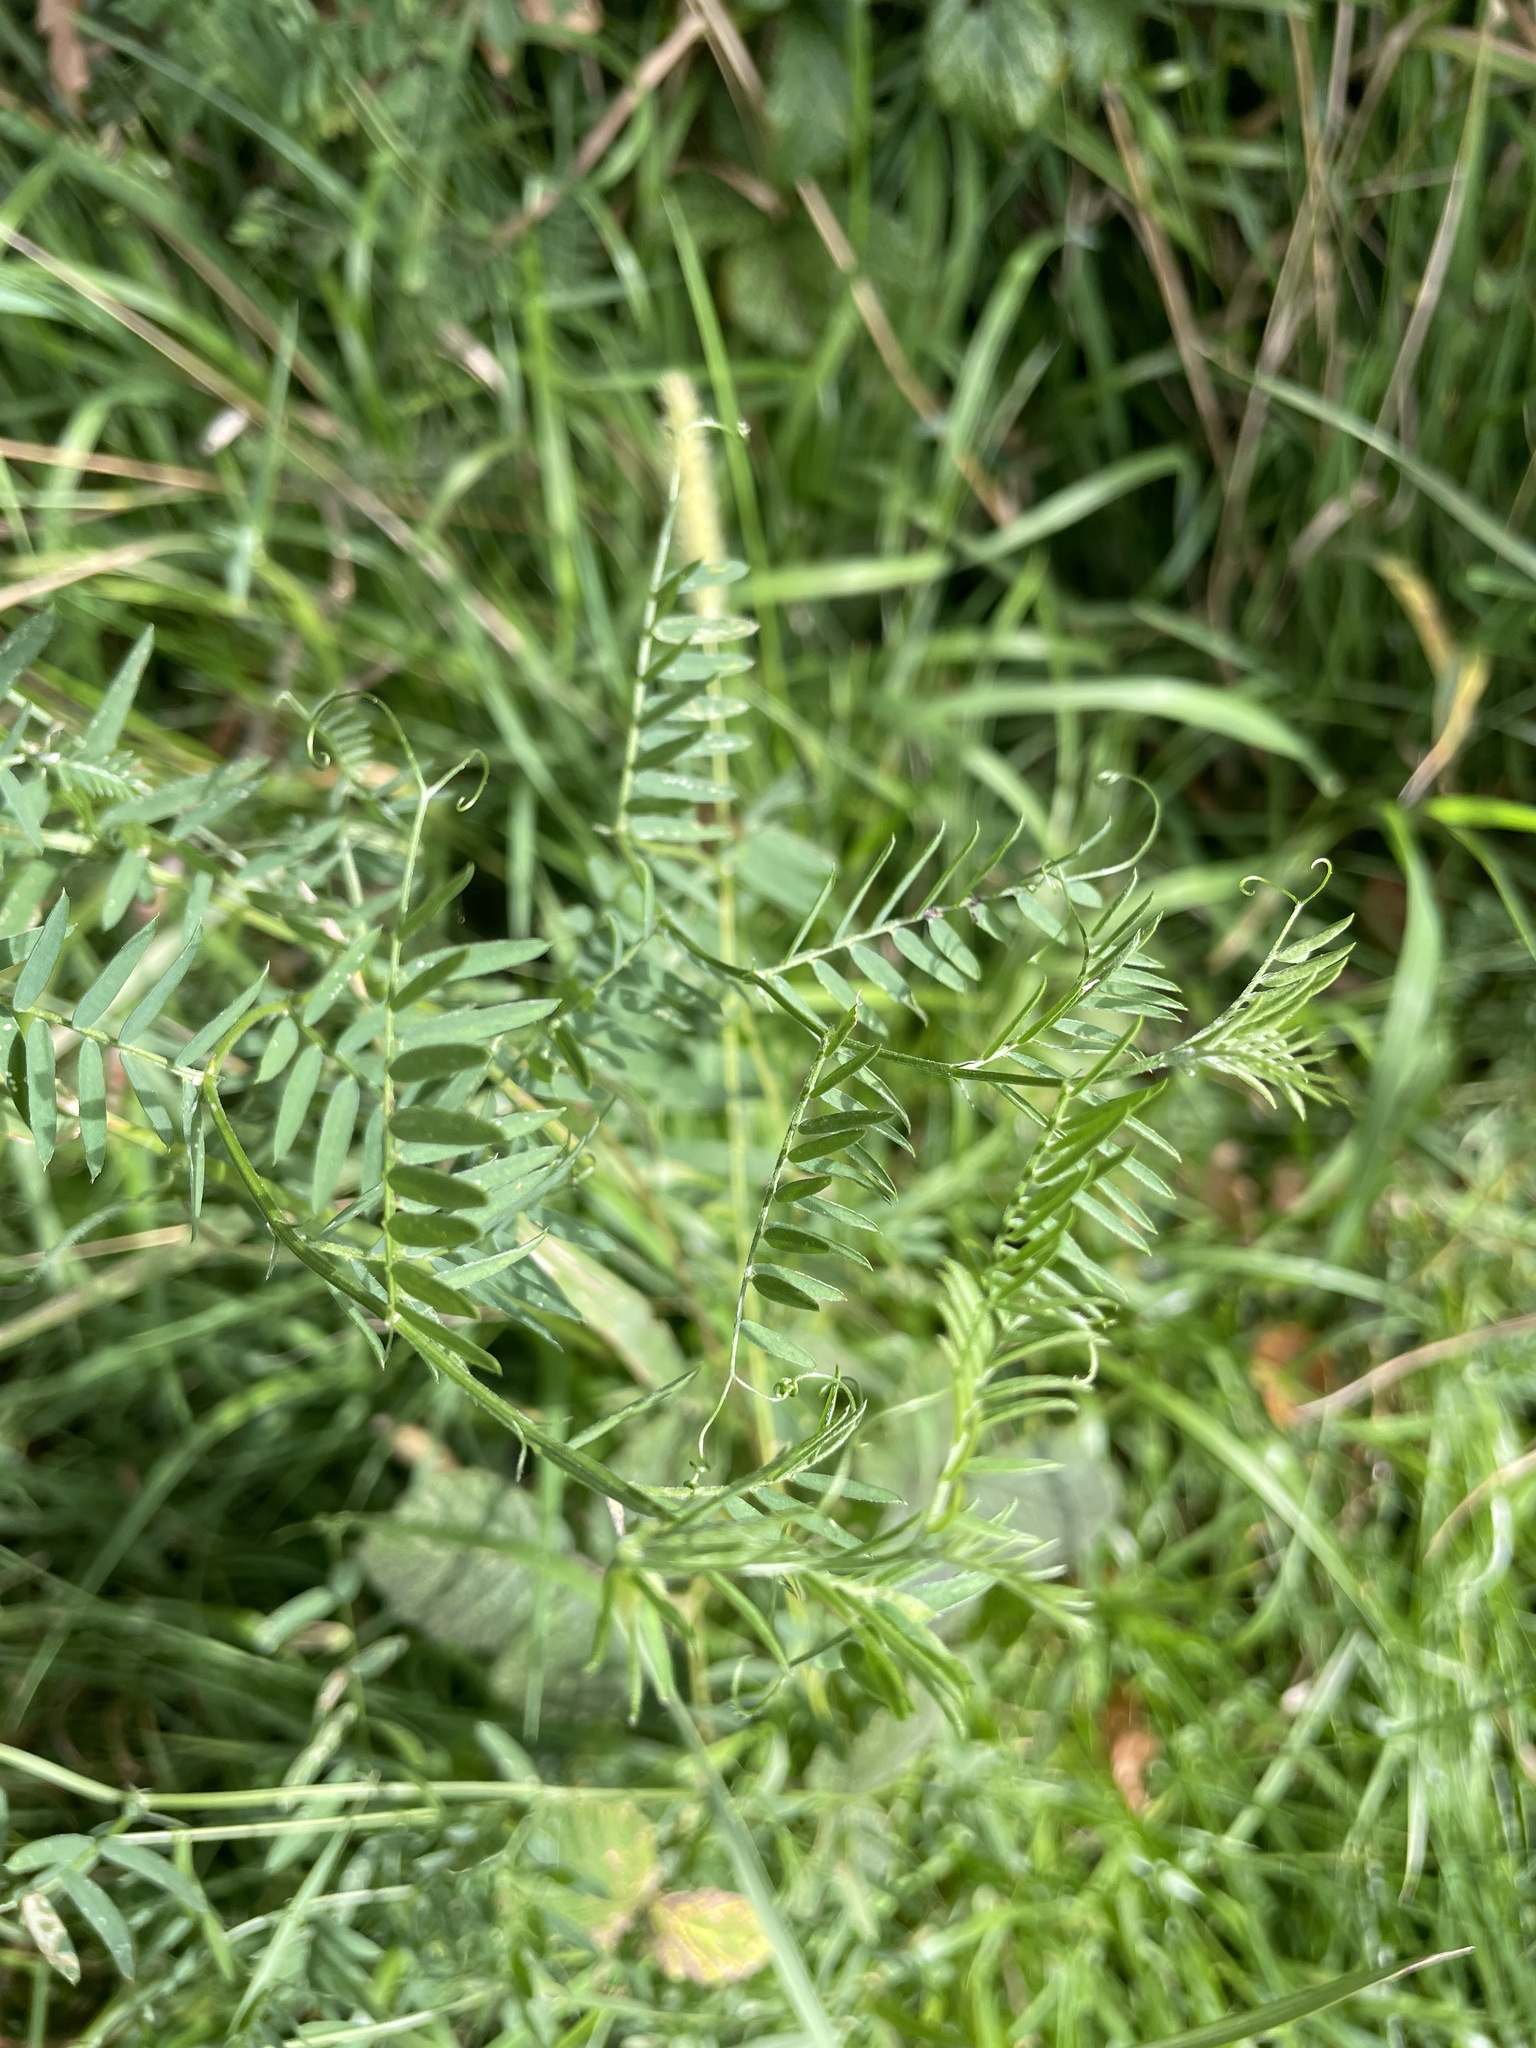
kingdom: Plantae
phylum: Tracheophyta
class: Magnoliopsida
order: Fabales
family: Fabaceae
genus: Vicia
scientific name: Vicia cracca
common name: Bird vetch
